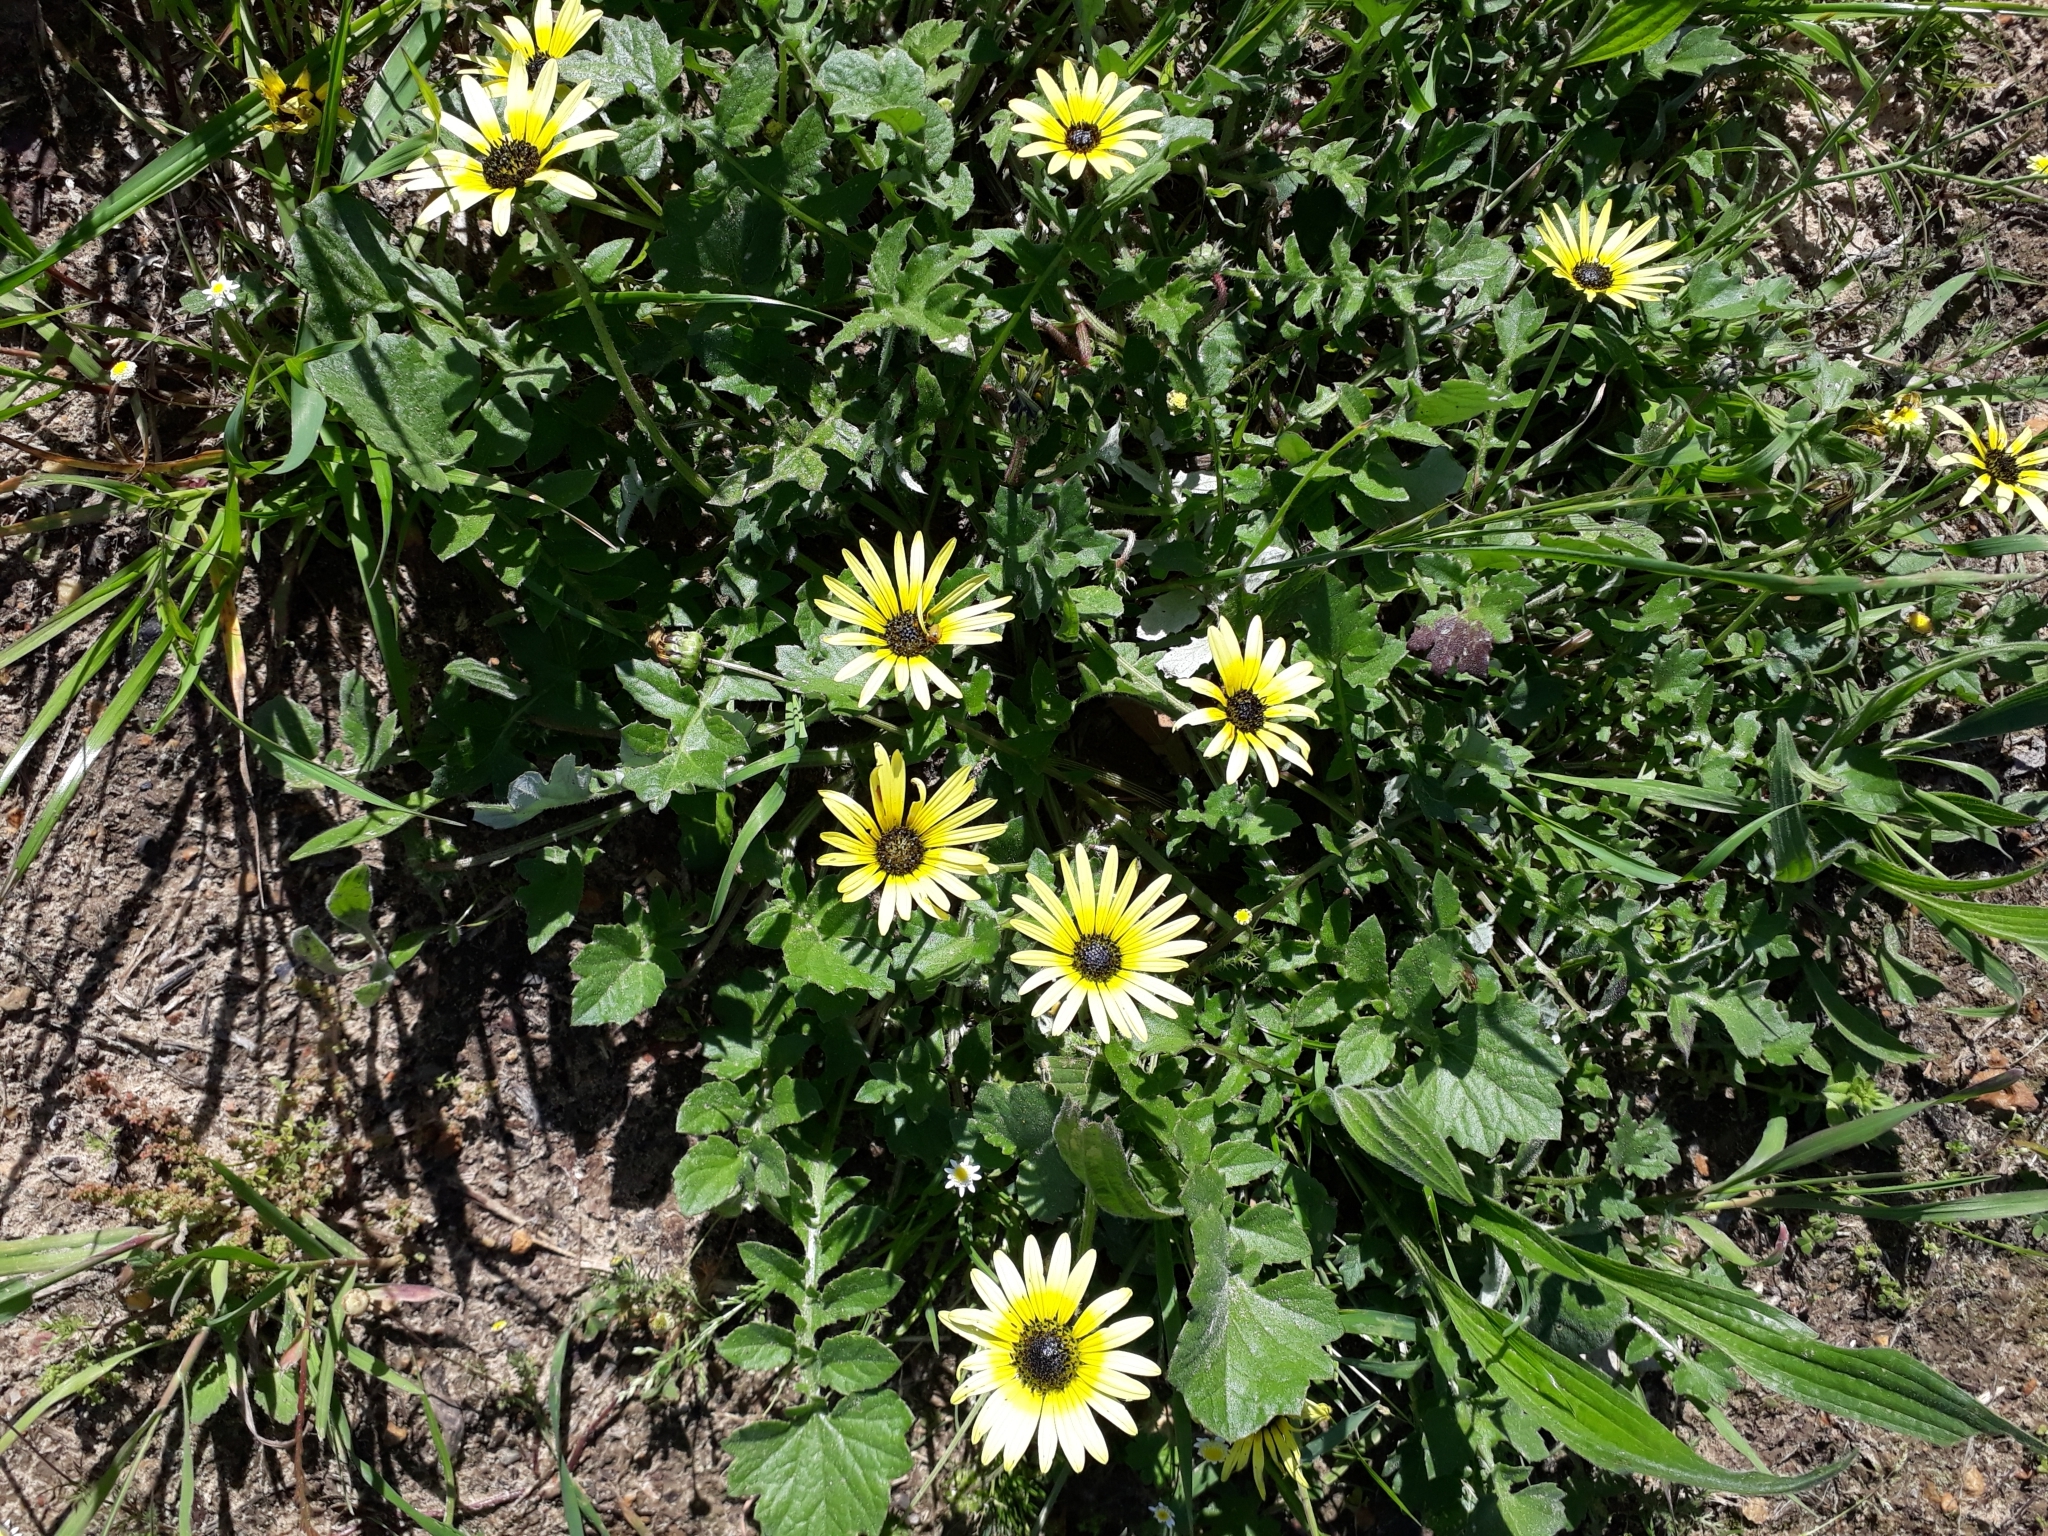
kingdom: Plantae
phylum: Tracheophyta
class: Magnoliopsida
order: Asterales
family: Asteraceae
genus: Arctotheca
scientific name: Arctotheca calendula
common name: Capeweed
